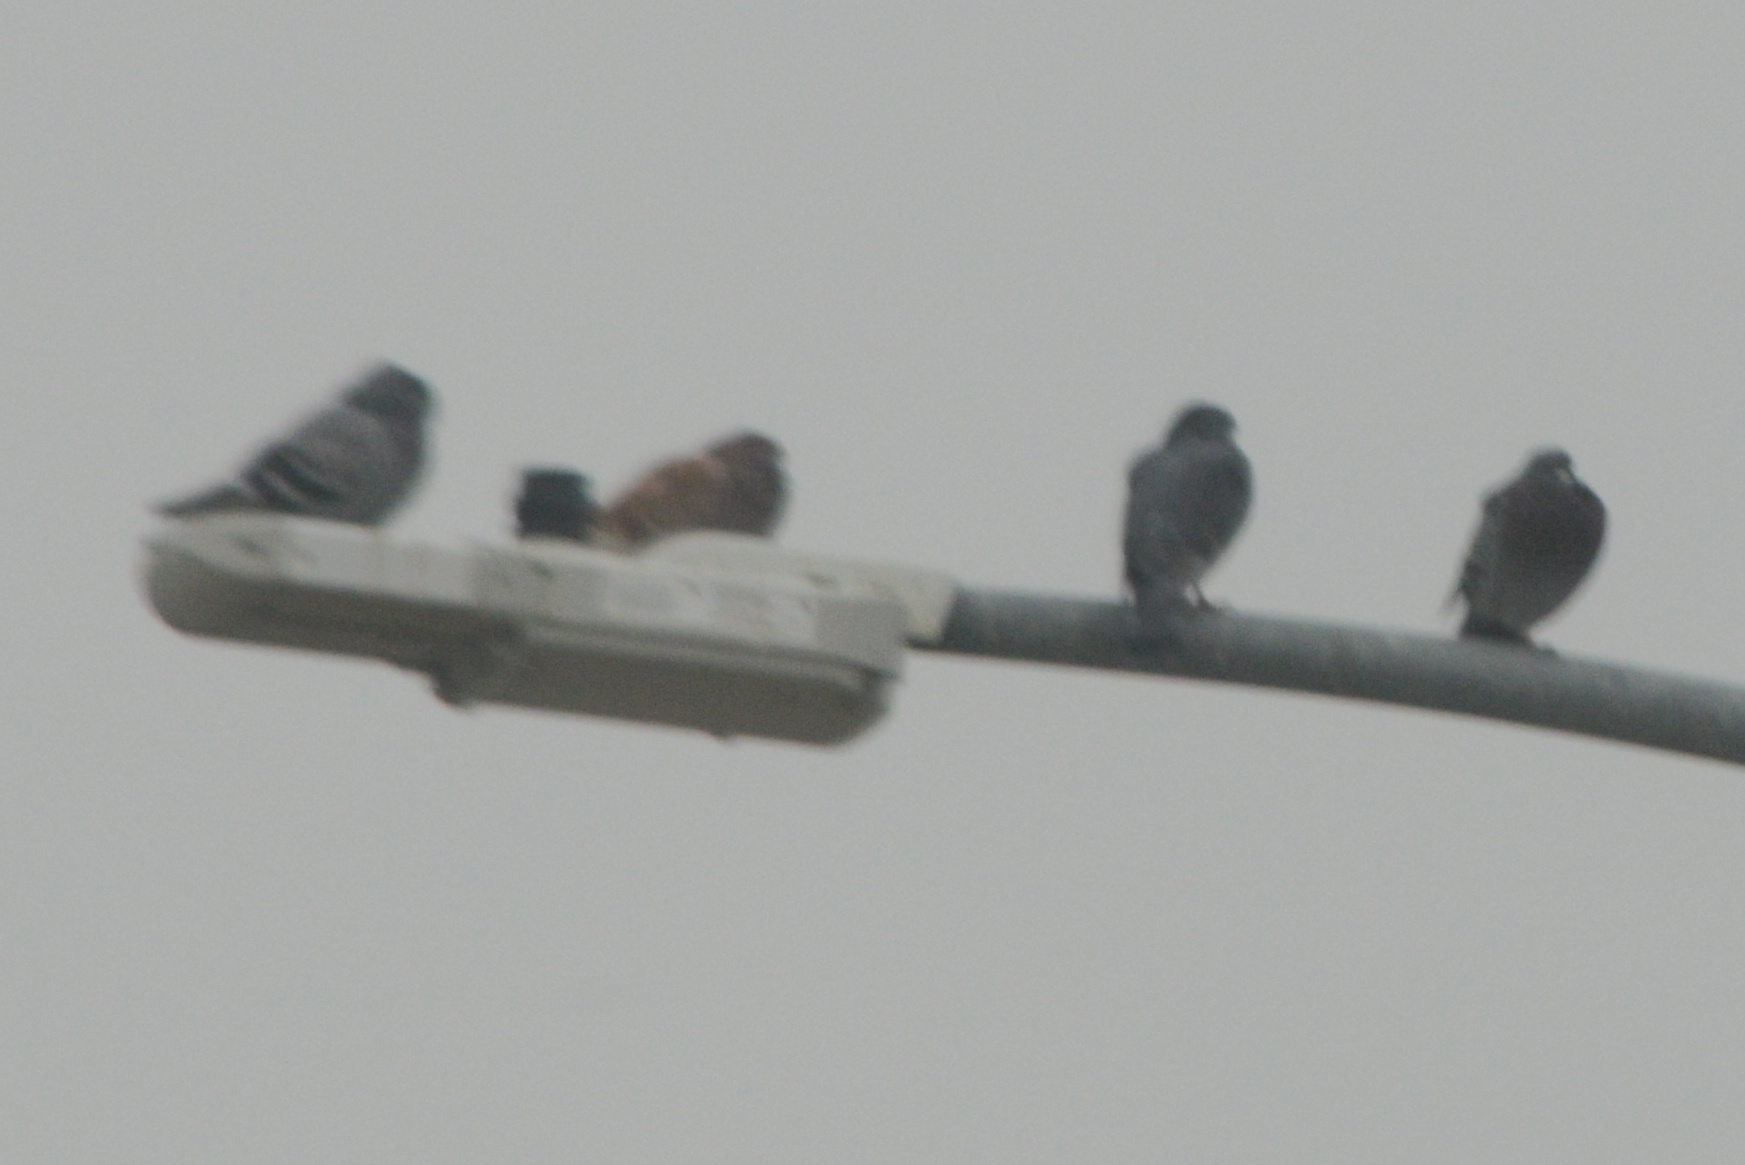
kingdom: Animalia
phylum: Chordata
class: Aves
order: Columbiformes
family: Columbidae
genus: Columba
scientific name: Columba livia
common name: Rock pigeon
